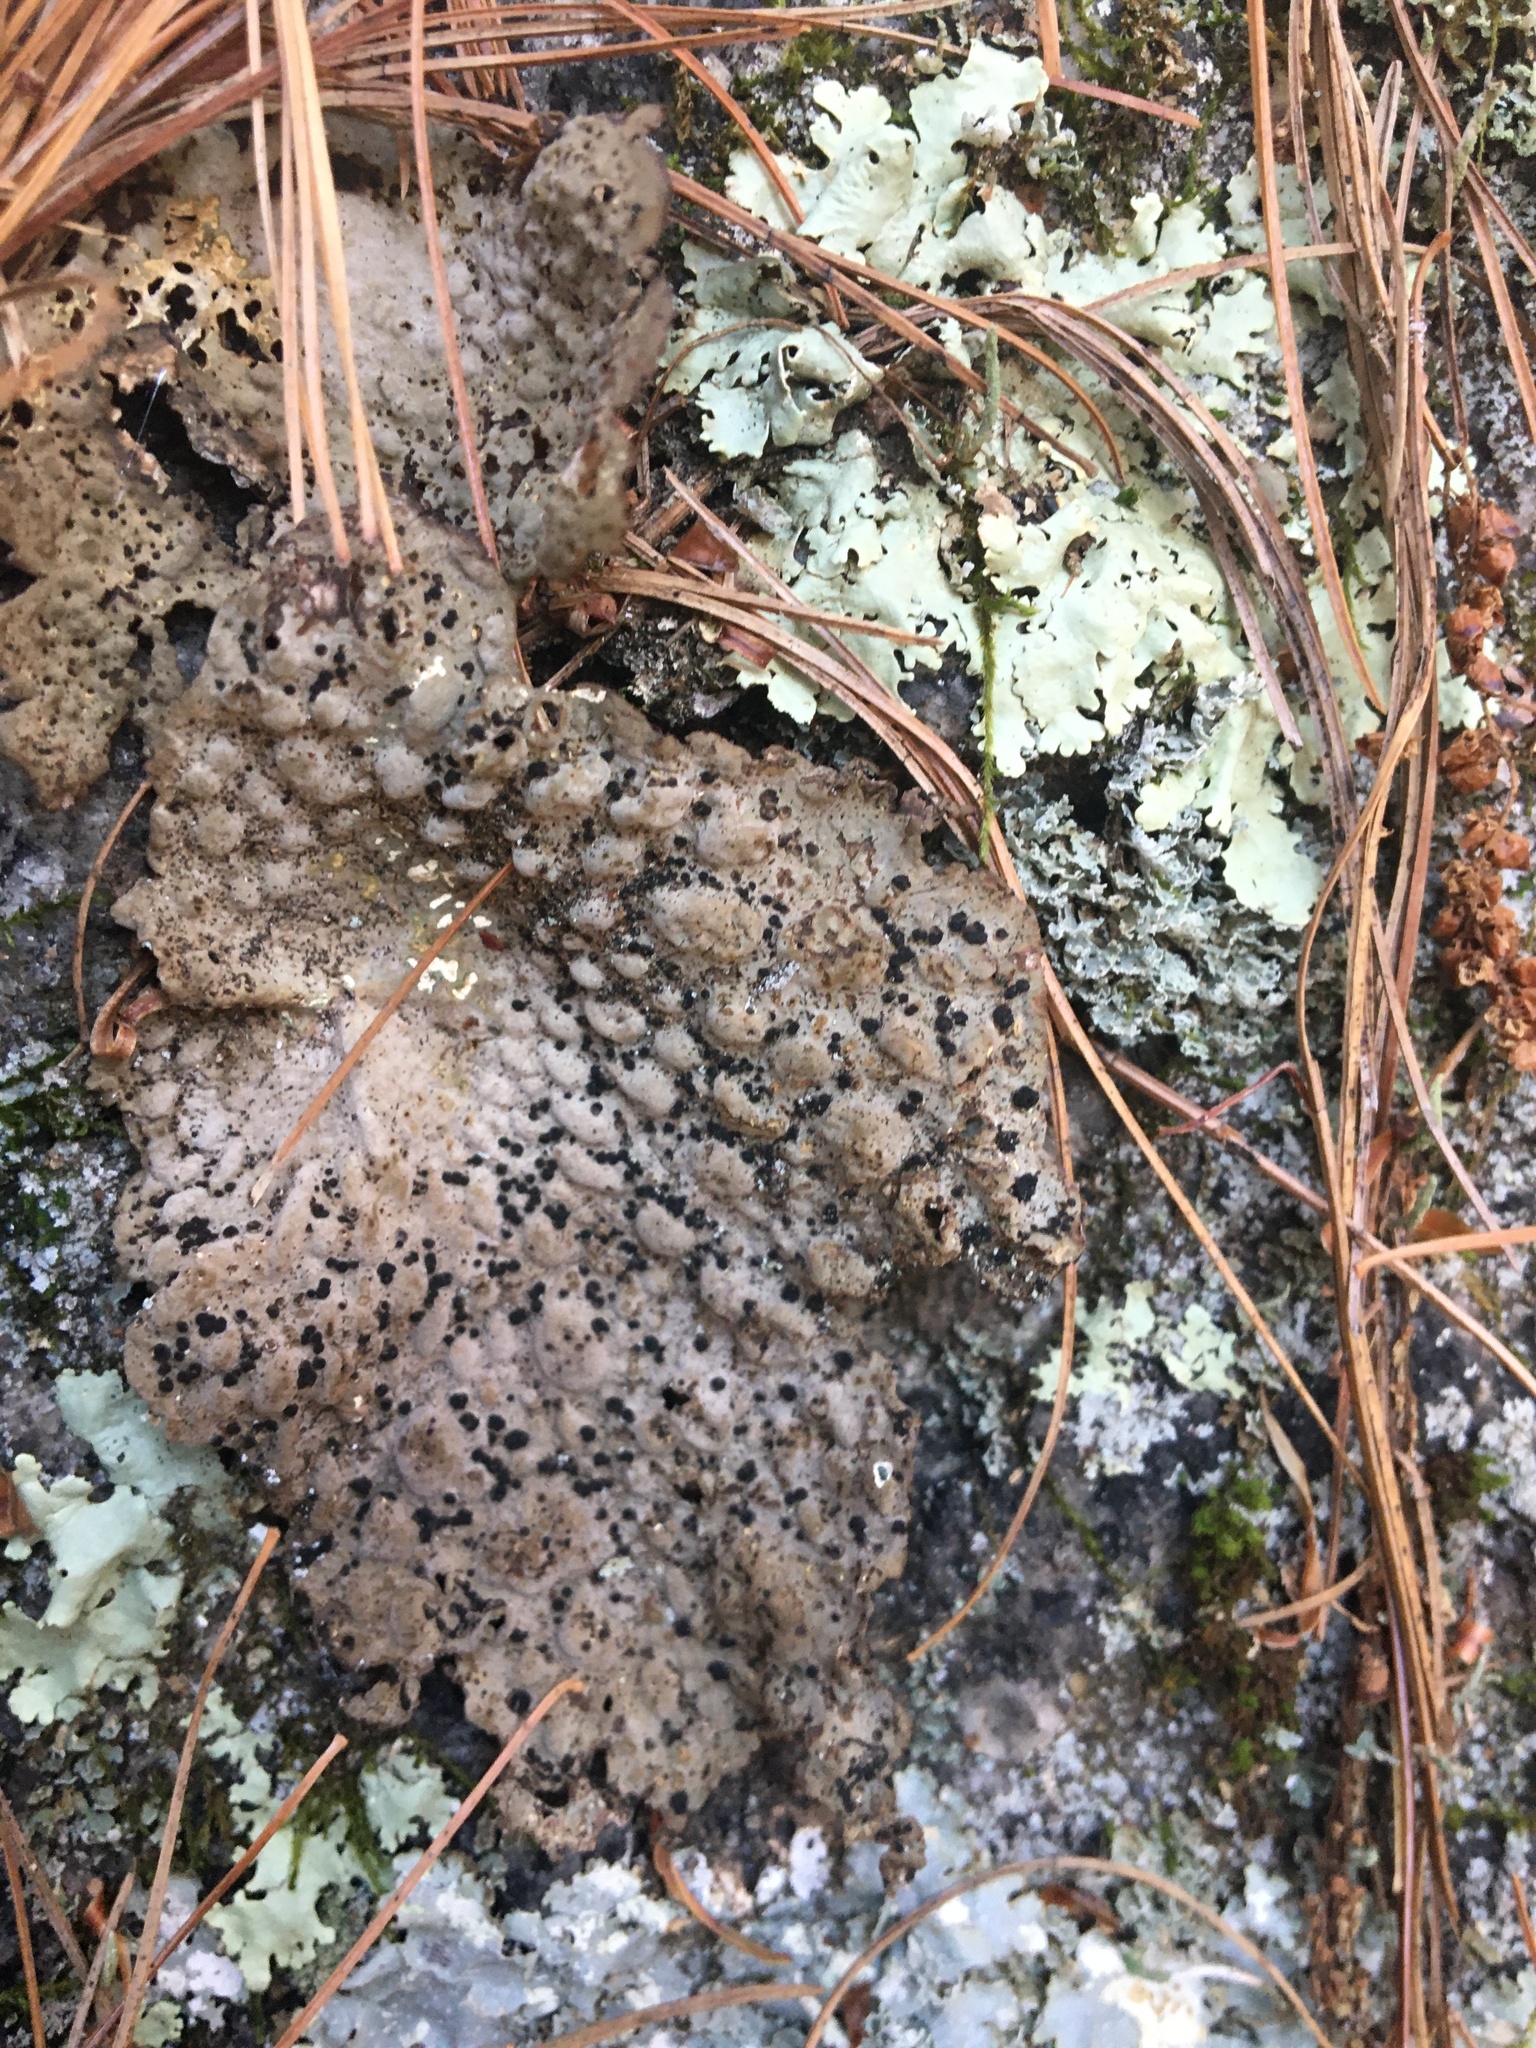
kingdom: Fungi
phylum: Ascomycota
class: Lecanoromycetes
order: Umbilicariales
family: Umbilicariaceae
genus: Lasallia
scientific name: Lasallia papulosa
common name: Common toadskin lichen
